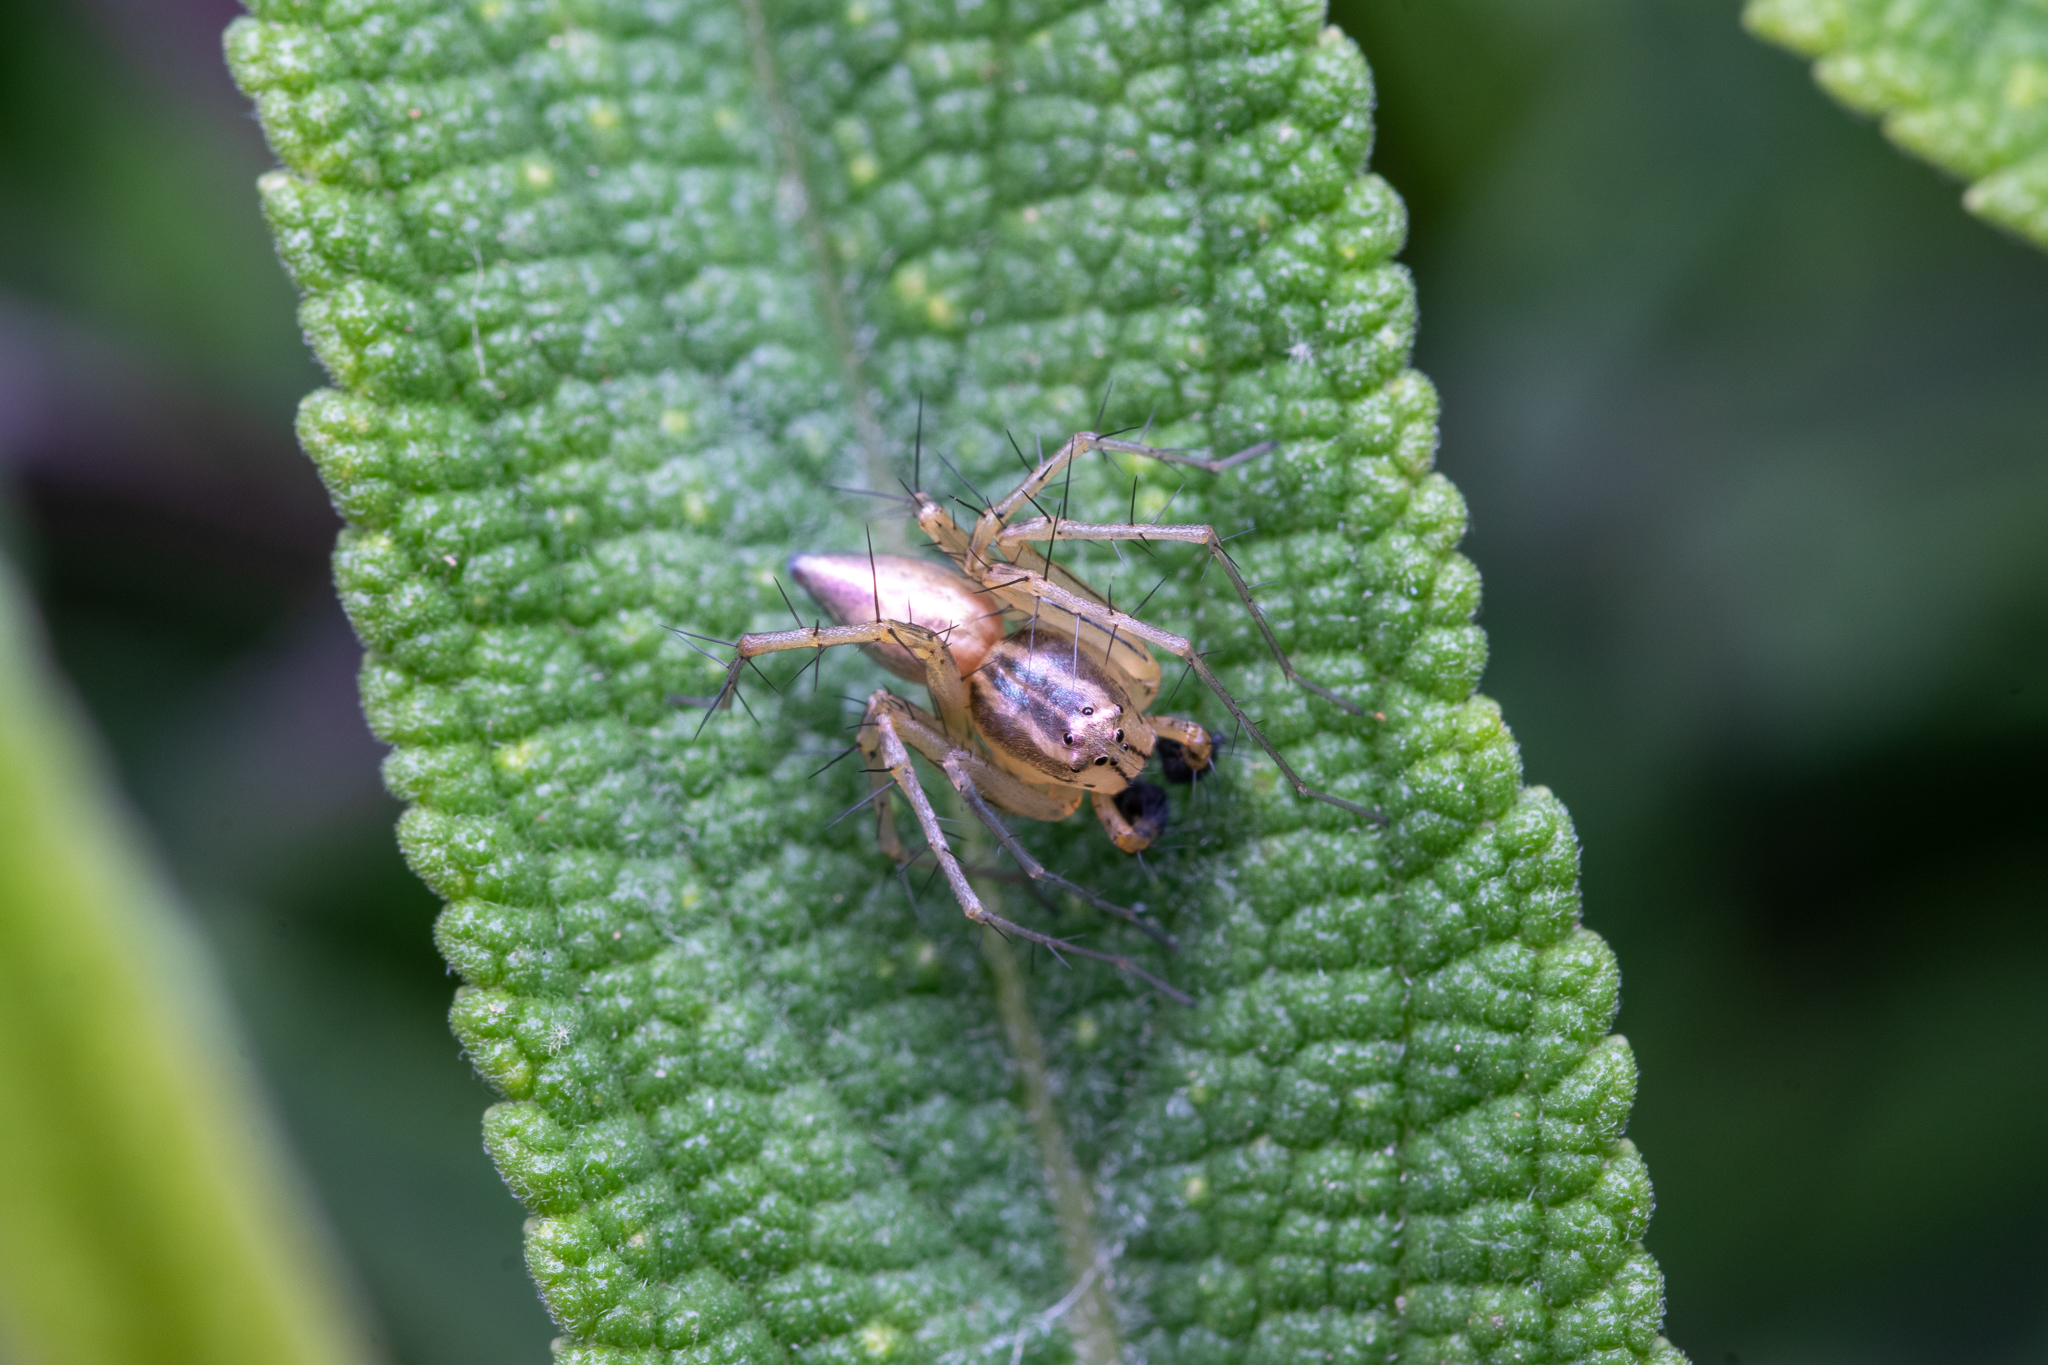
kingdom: Animalia
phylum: Arthropoda
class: Arachnida
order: Araneae
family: Oxyopidae
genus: Oxyopes
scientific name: Oxyopes salticus
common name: Lynx spiders
